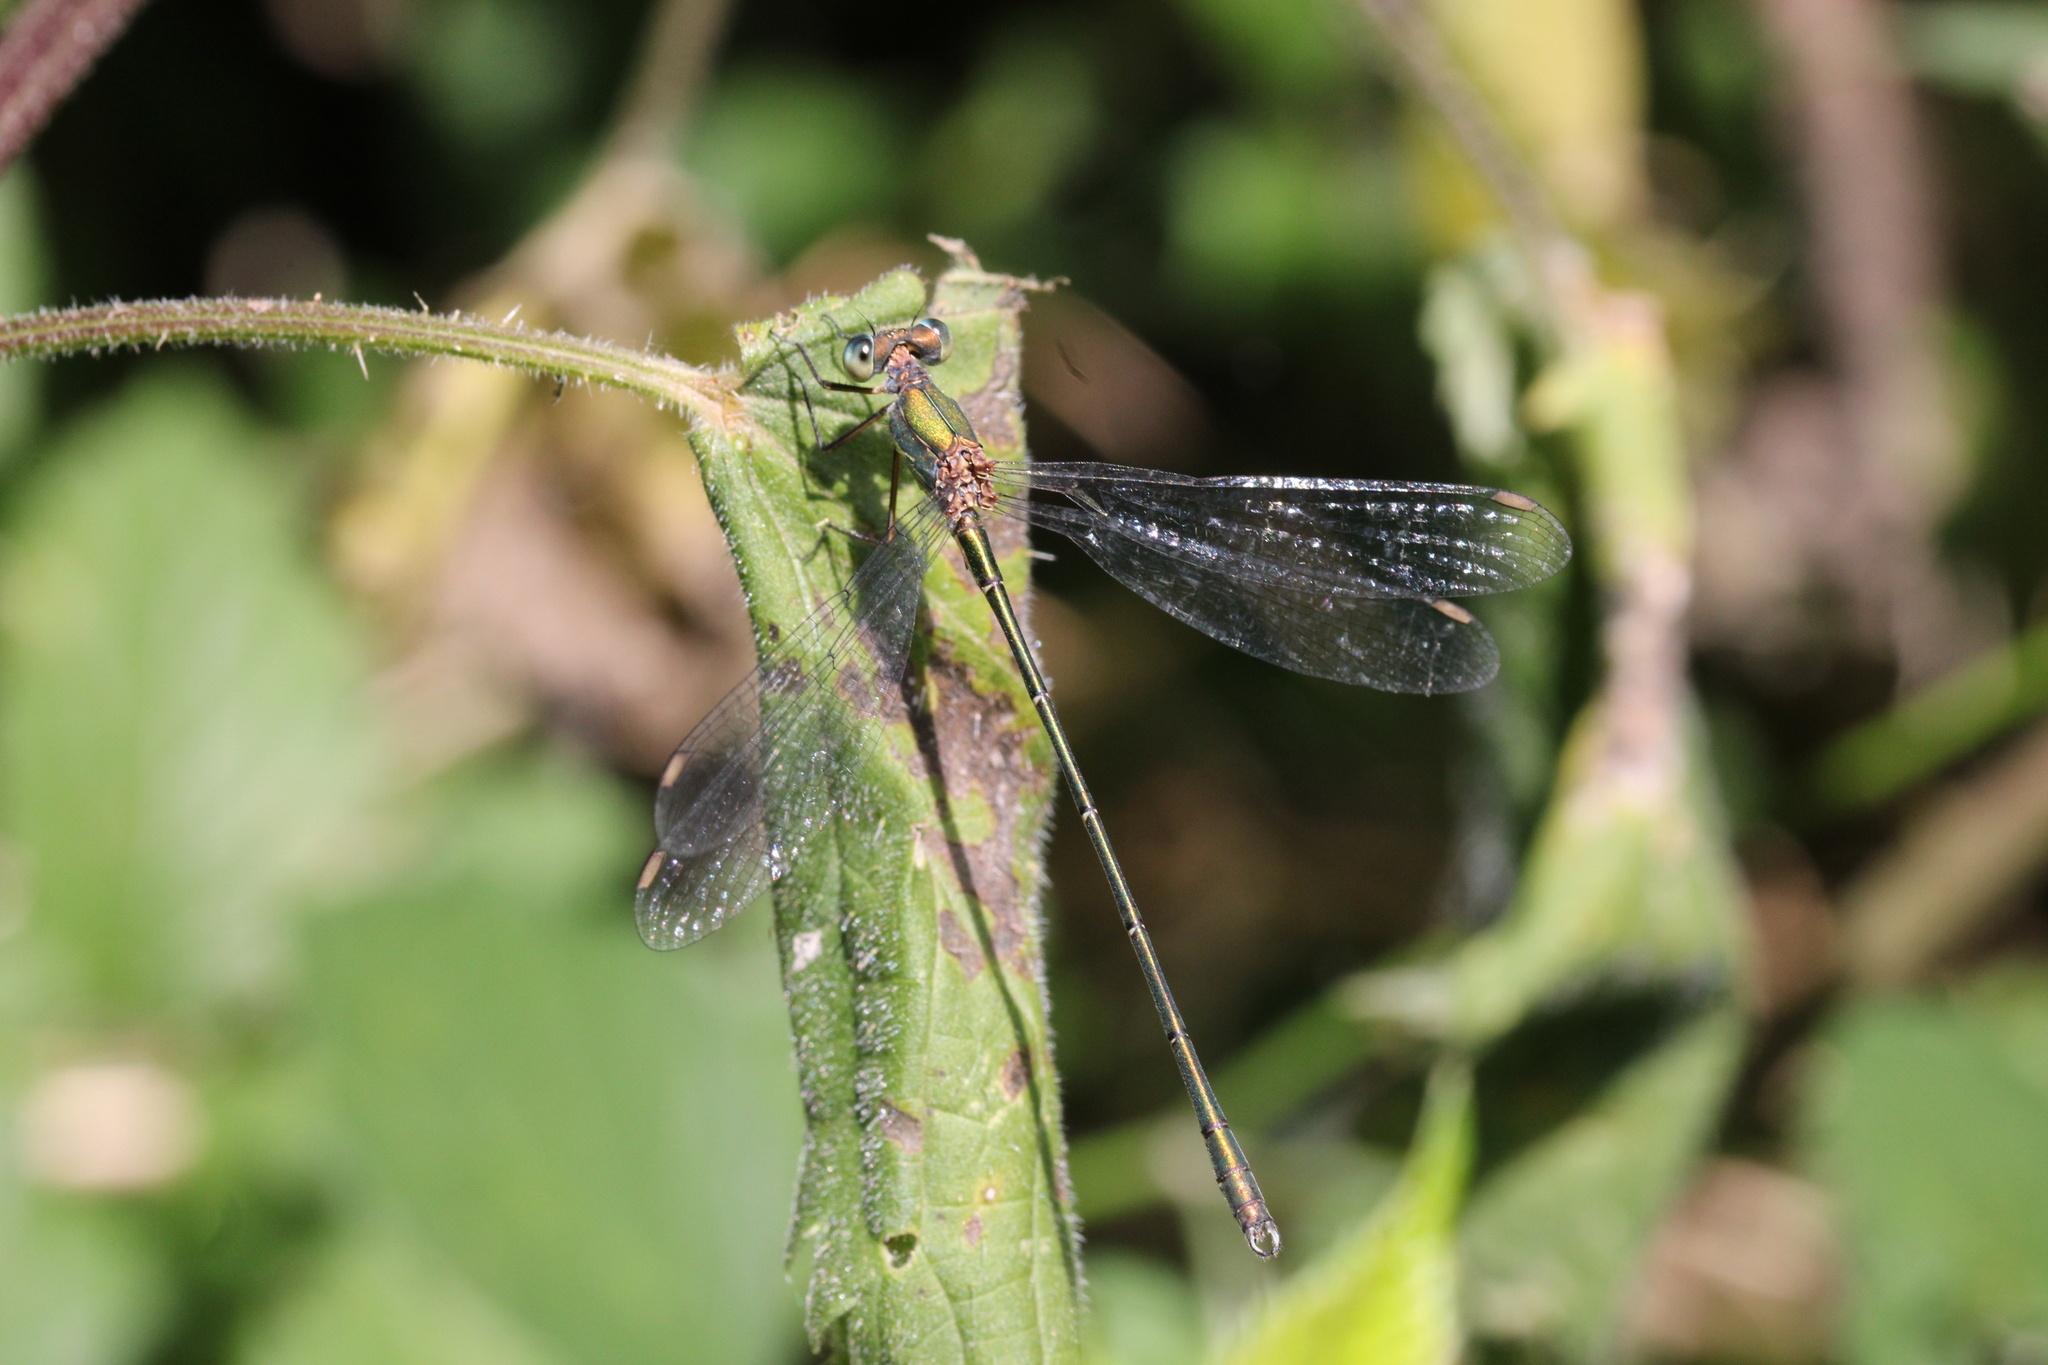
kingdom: Animalia
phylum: Arthropoda
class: Insecta
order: Odonata
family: Lestidae
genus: Chalcolestes
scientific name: Chalcolestes viridis
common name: Green emerald damselfly
